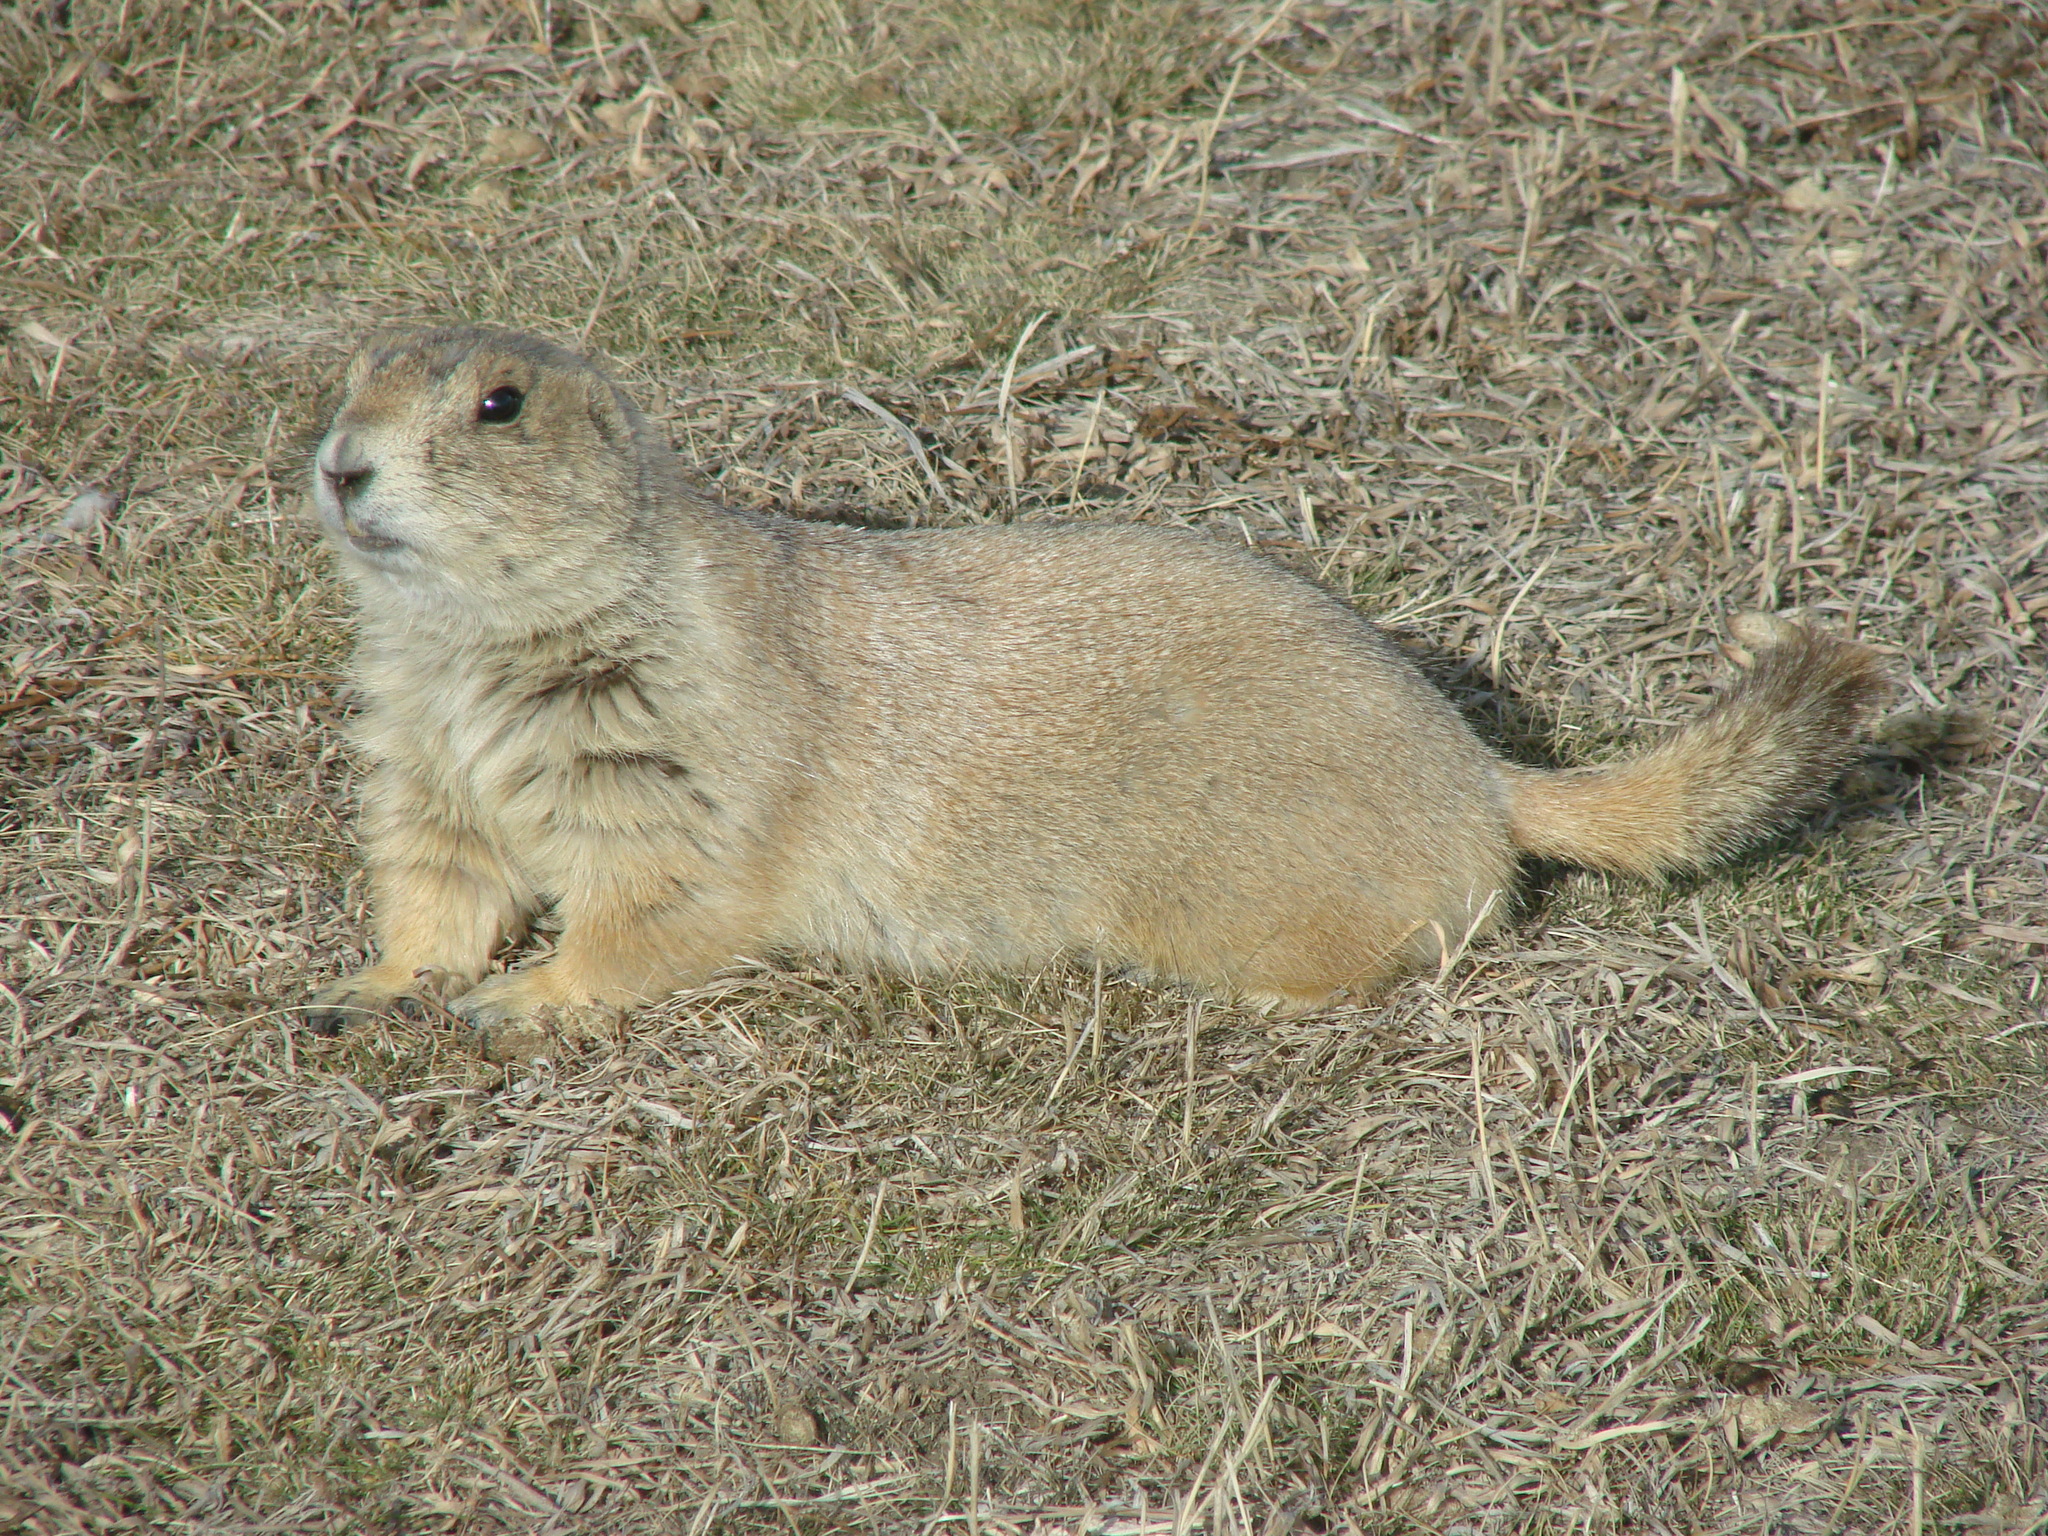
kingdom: Animalia
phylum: Chordata
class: Mammalia
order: Rodentia
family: Sciuridae
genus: Cynomys
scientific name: Cynomys ludovicianus
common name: Black-tailed prairie dog
